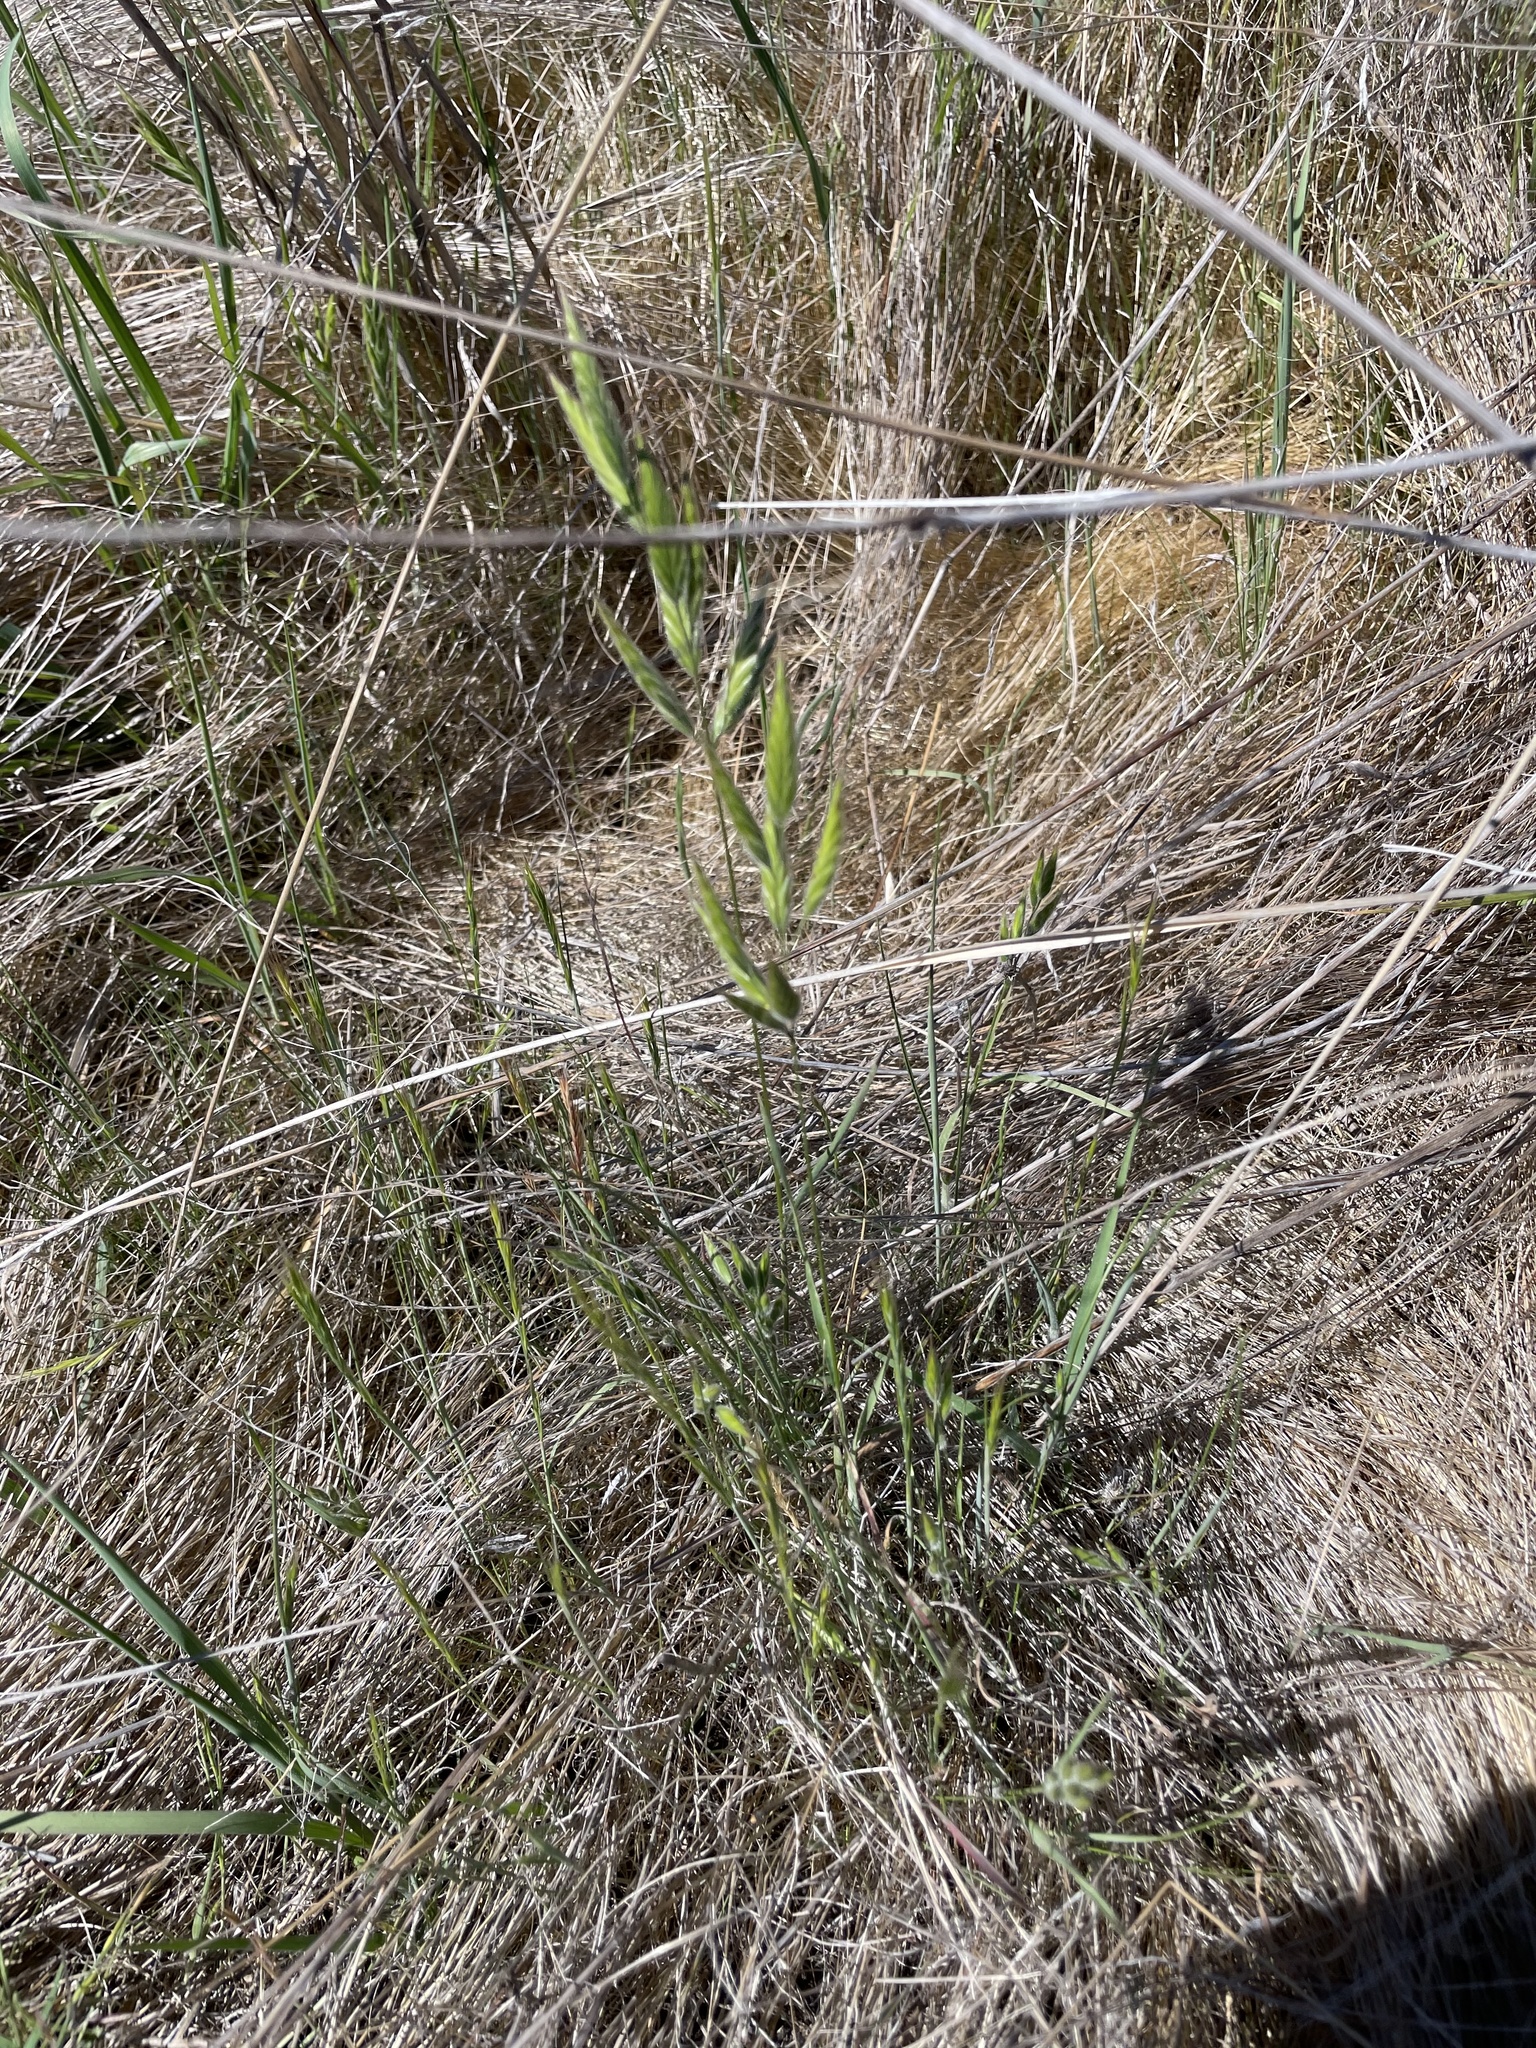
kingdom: Plantae
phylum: Tracheophyta
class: Liliopsida
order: Poales
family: Poaceae
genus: Bromus
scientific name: Bromus hordeaceus
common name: Soft brome
